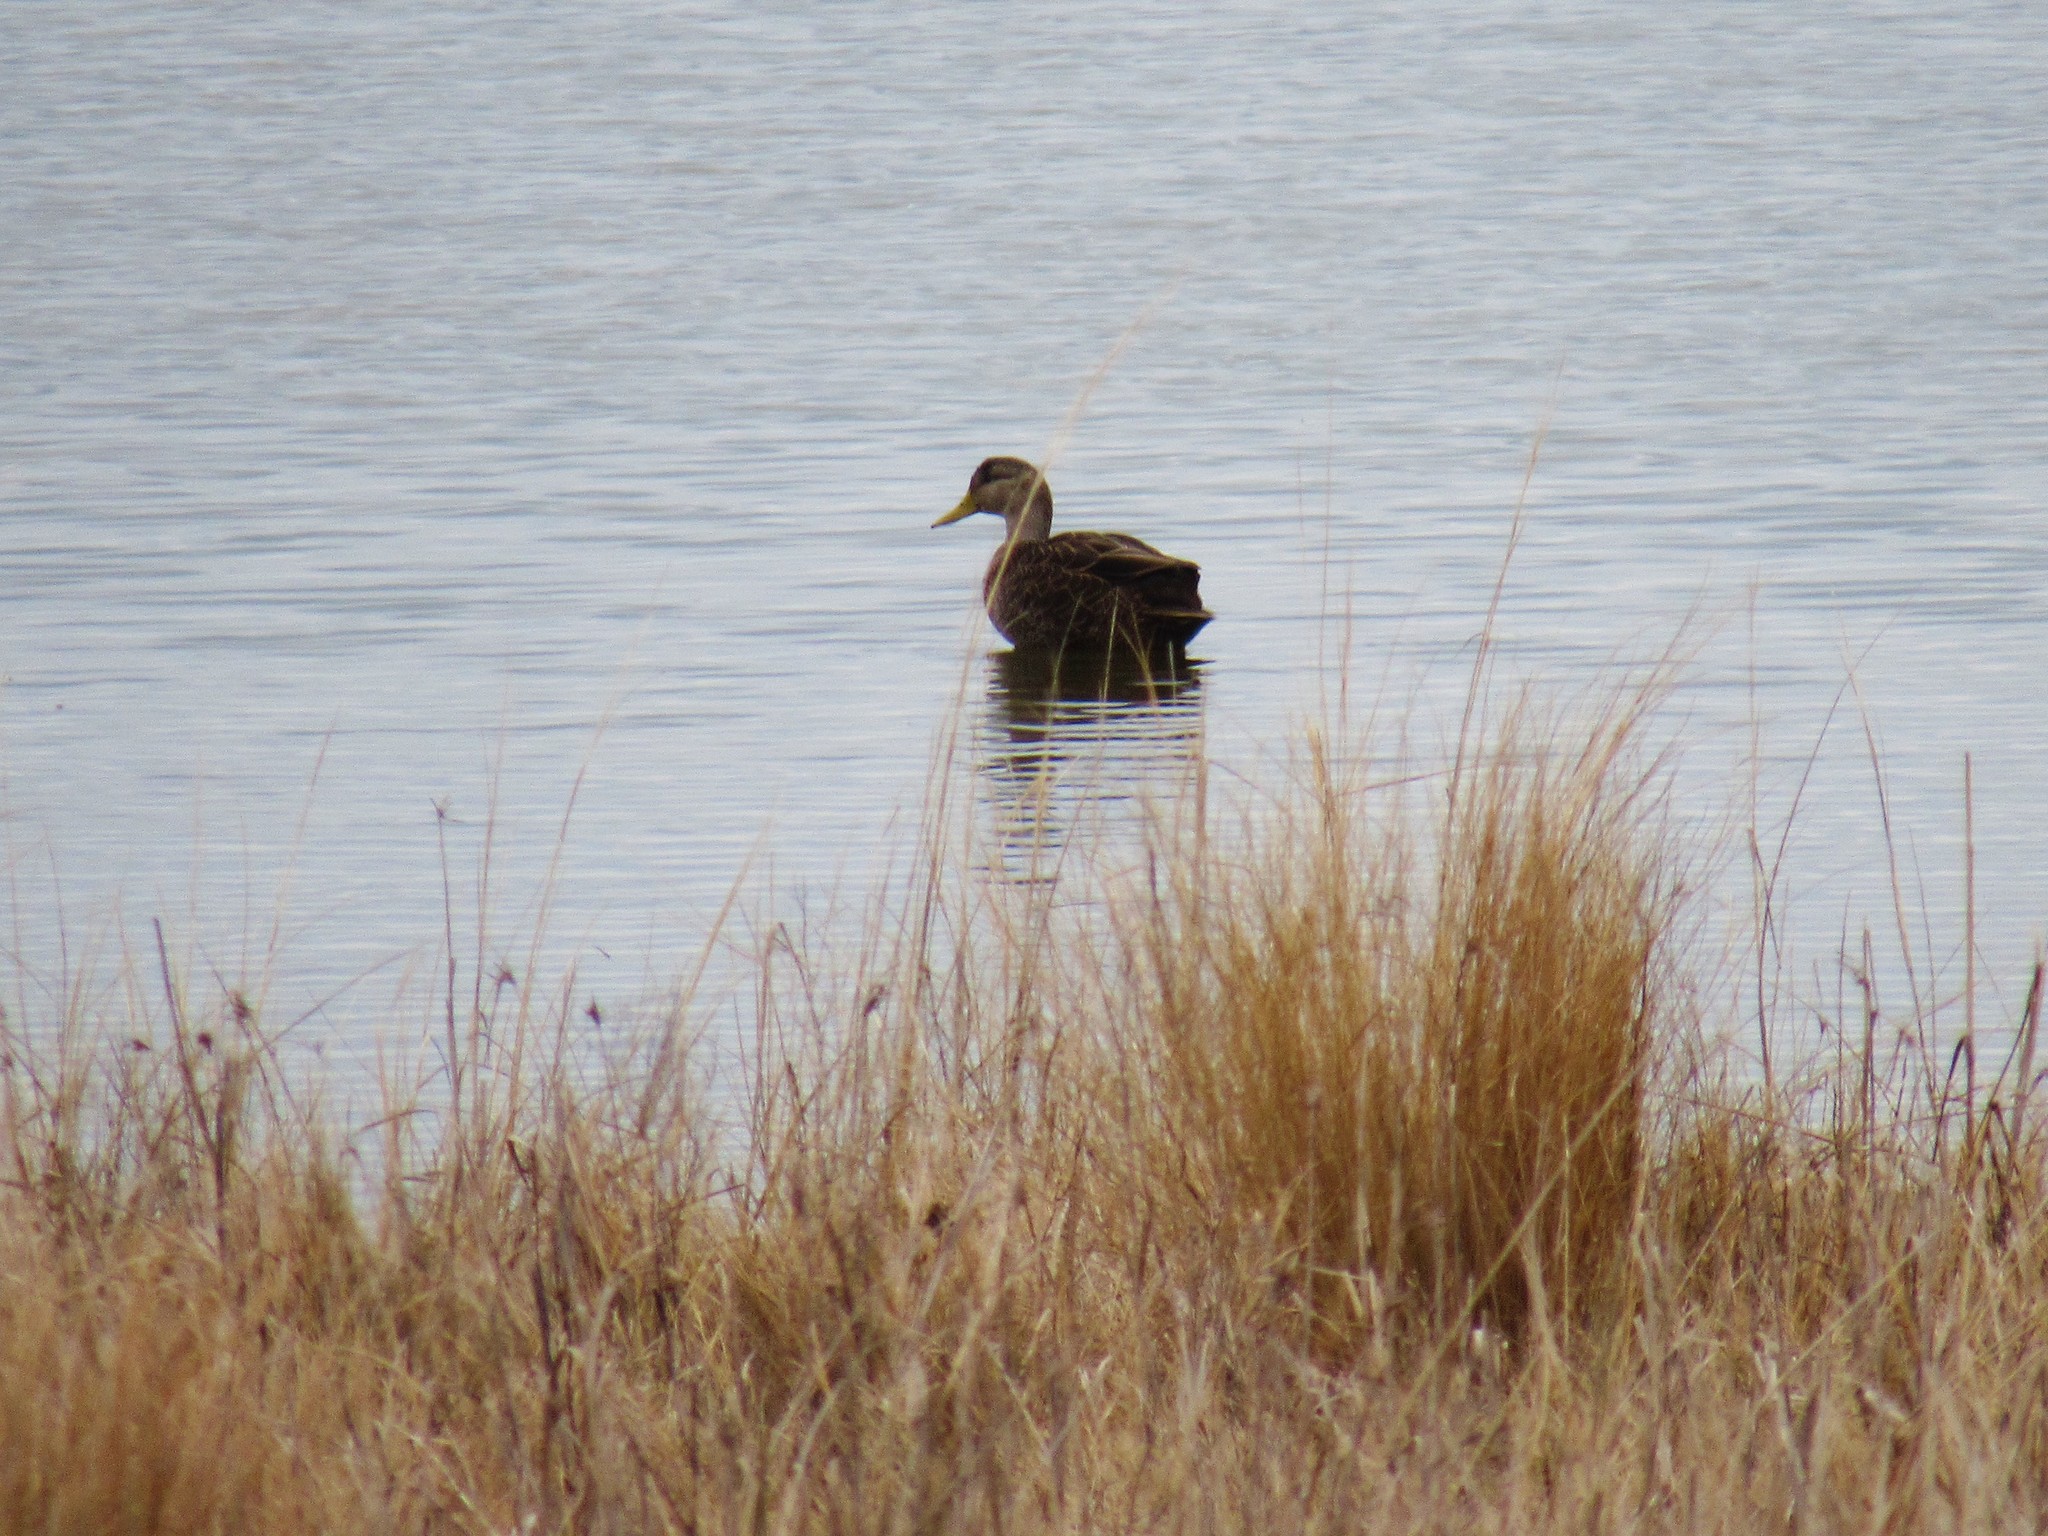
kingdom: Animalia
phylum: Chordata
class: Aves
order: Anseriformes
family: Anatidae
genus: Anas
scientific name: Anas rubripes
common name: American black duck
